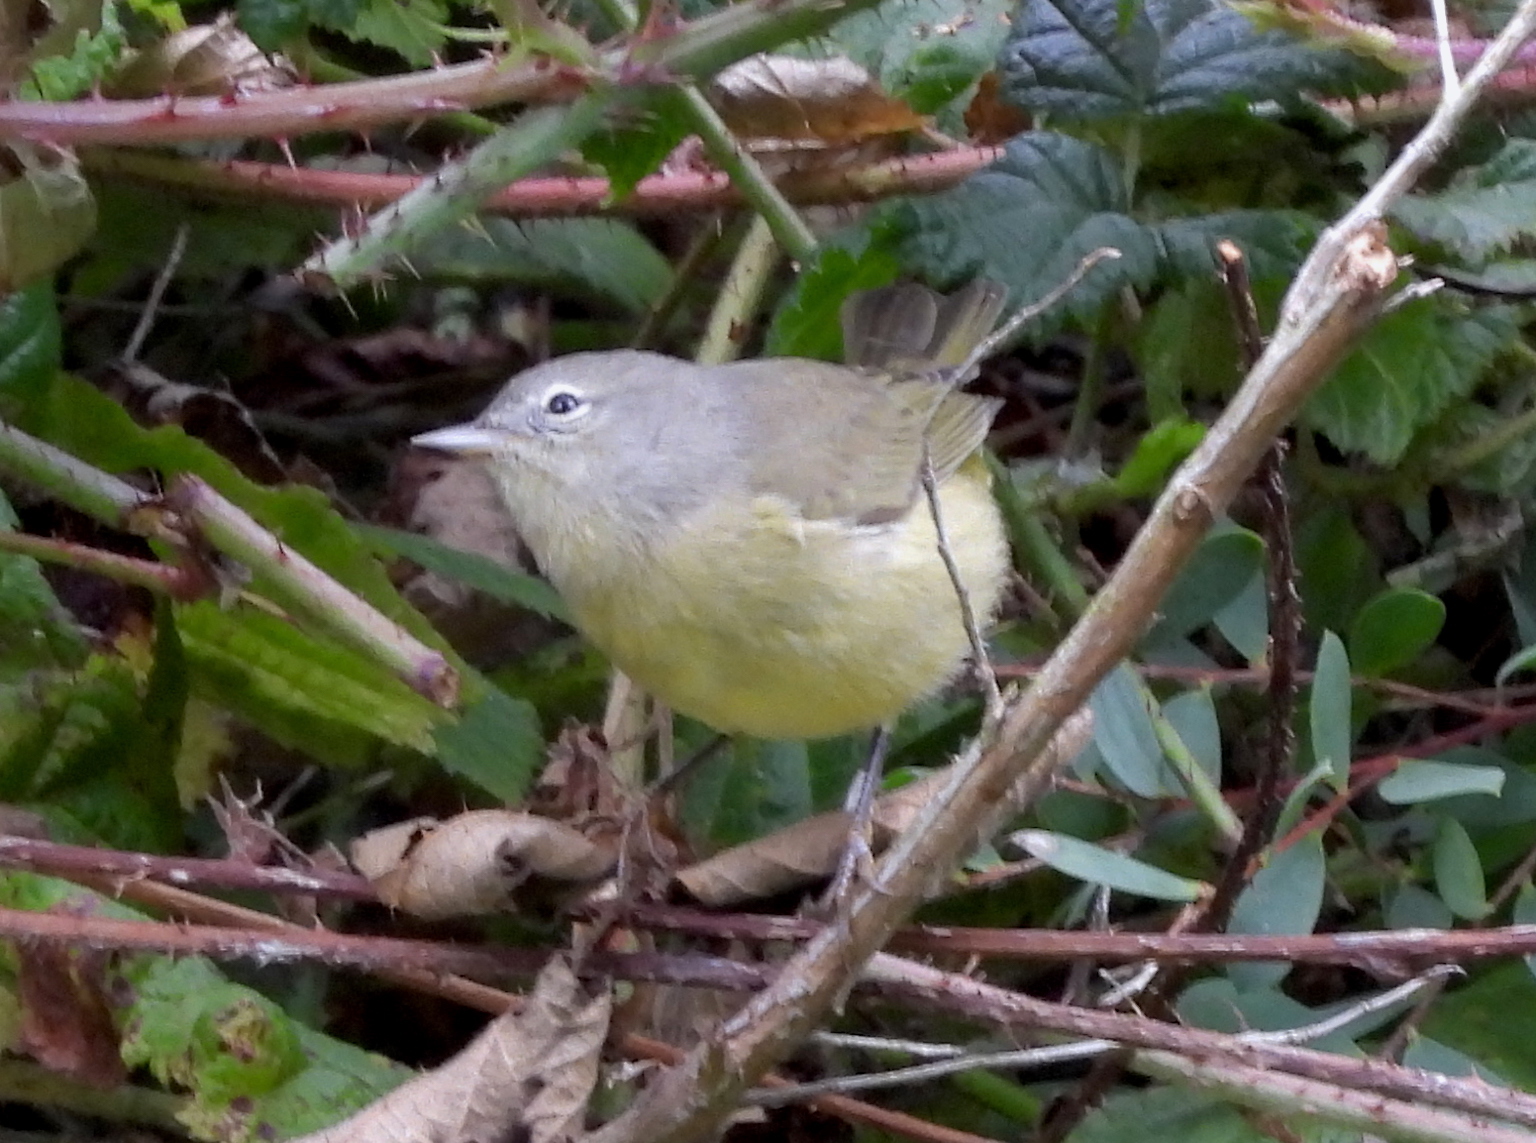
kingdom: Animalia
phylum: Chordata
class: Aves
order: Passeriformes
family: Parulidae
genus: Leiothlypis
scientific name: Leiothlypis celata
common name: Orange-crowned warbler
